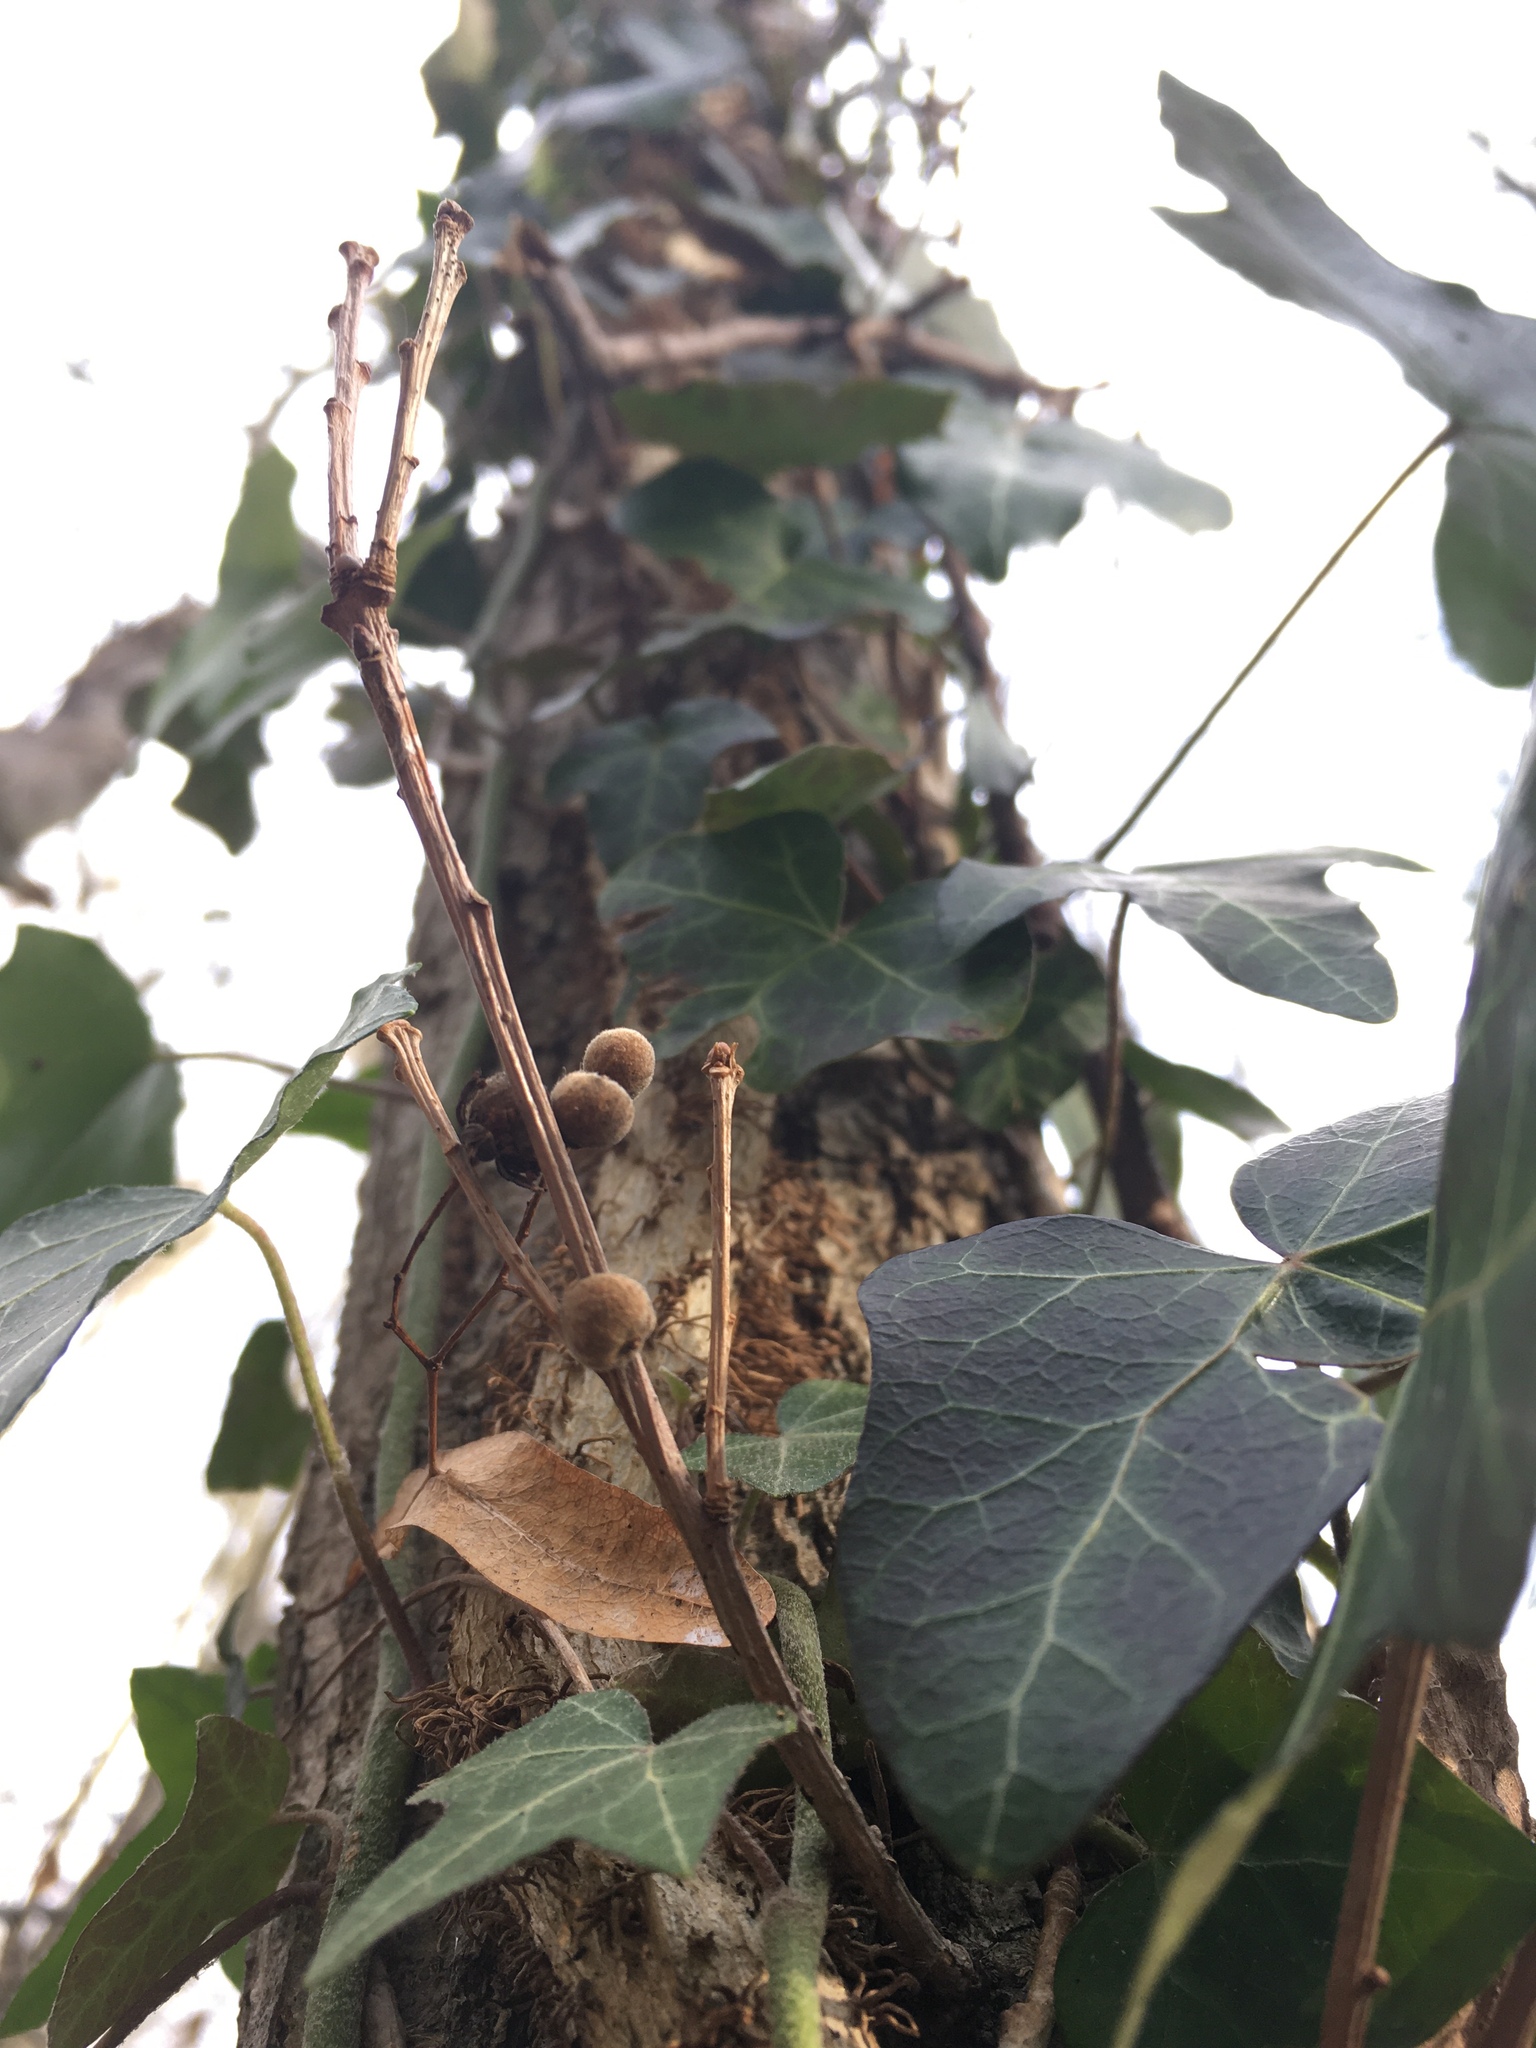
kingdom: Plantae
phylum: Tracheophyta
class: Magnoliopsida
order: Apiales
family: Araliaceae
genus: Hedera
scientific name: Hedera helix
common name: Ivy
